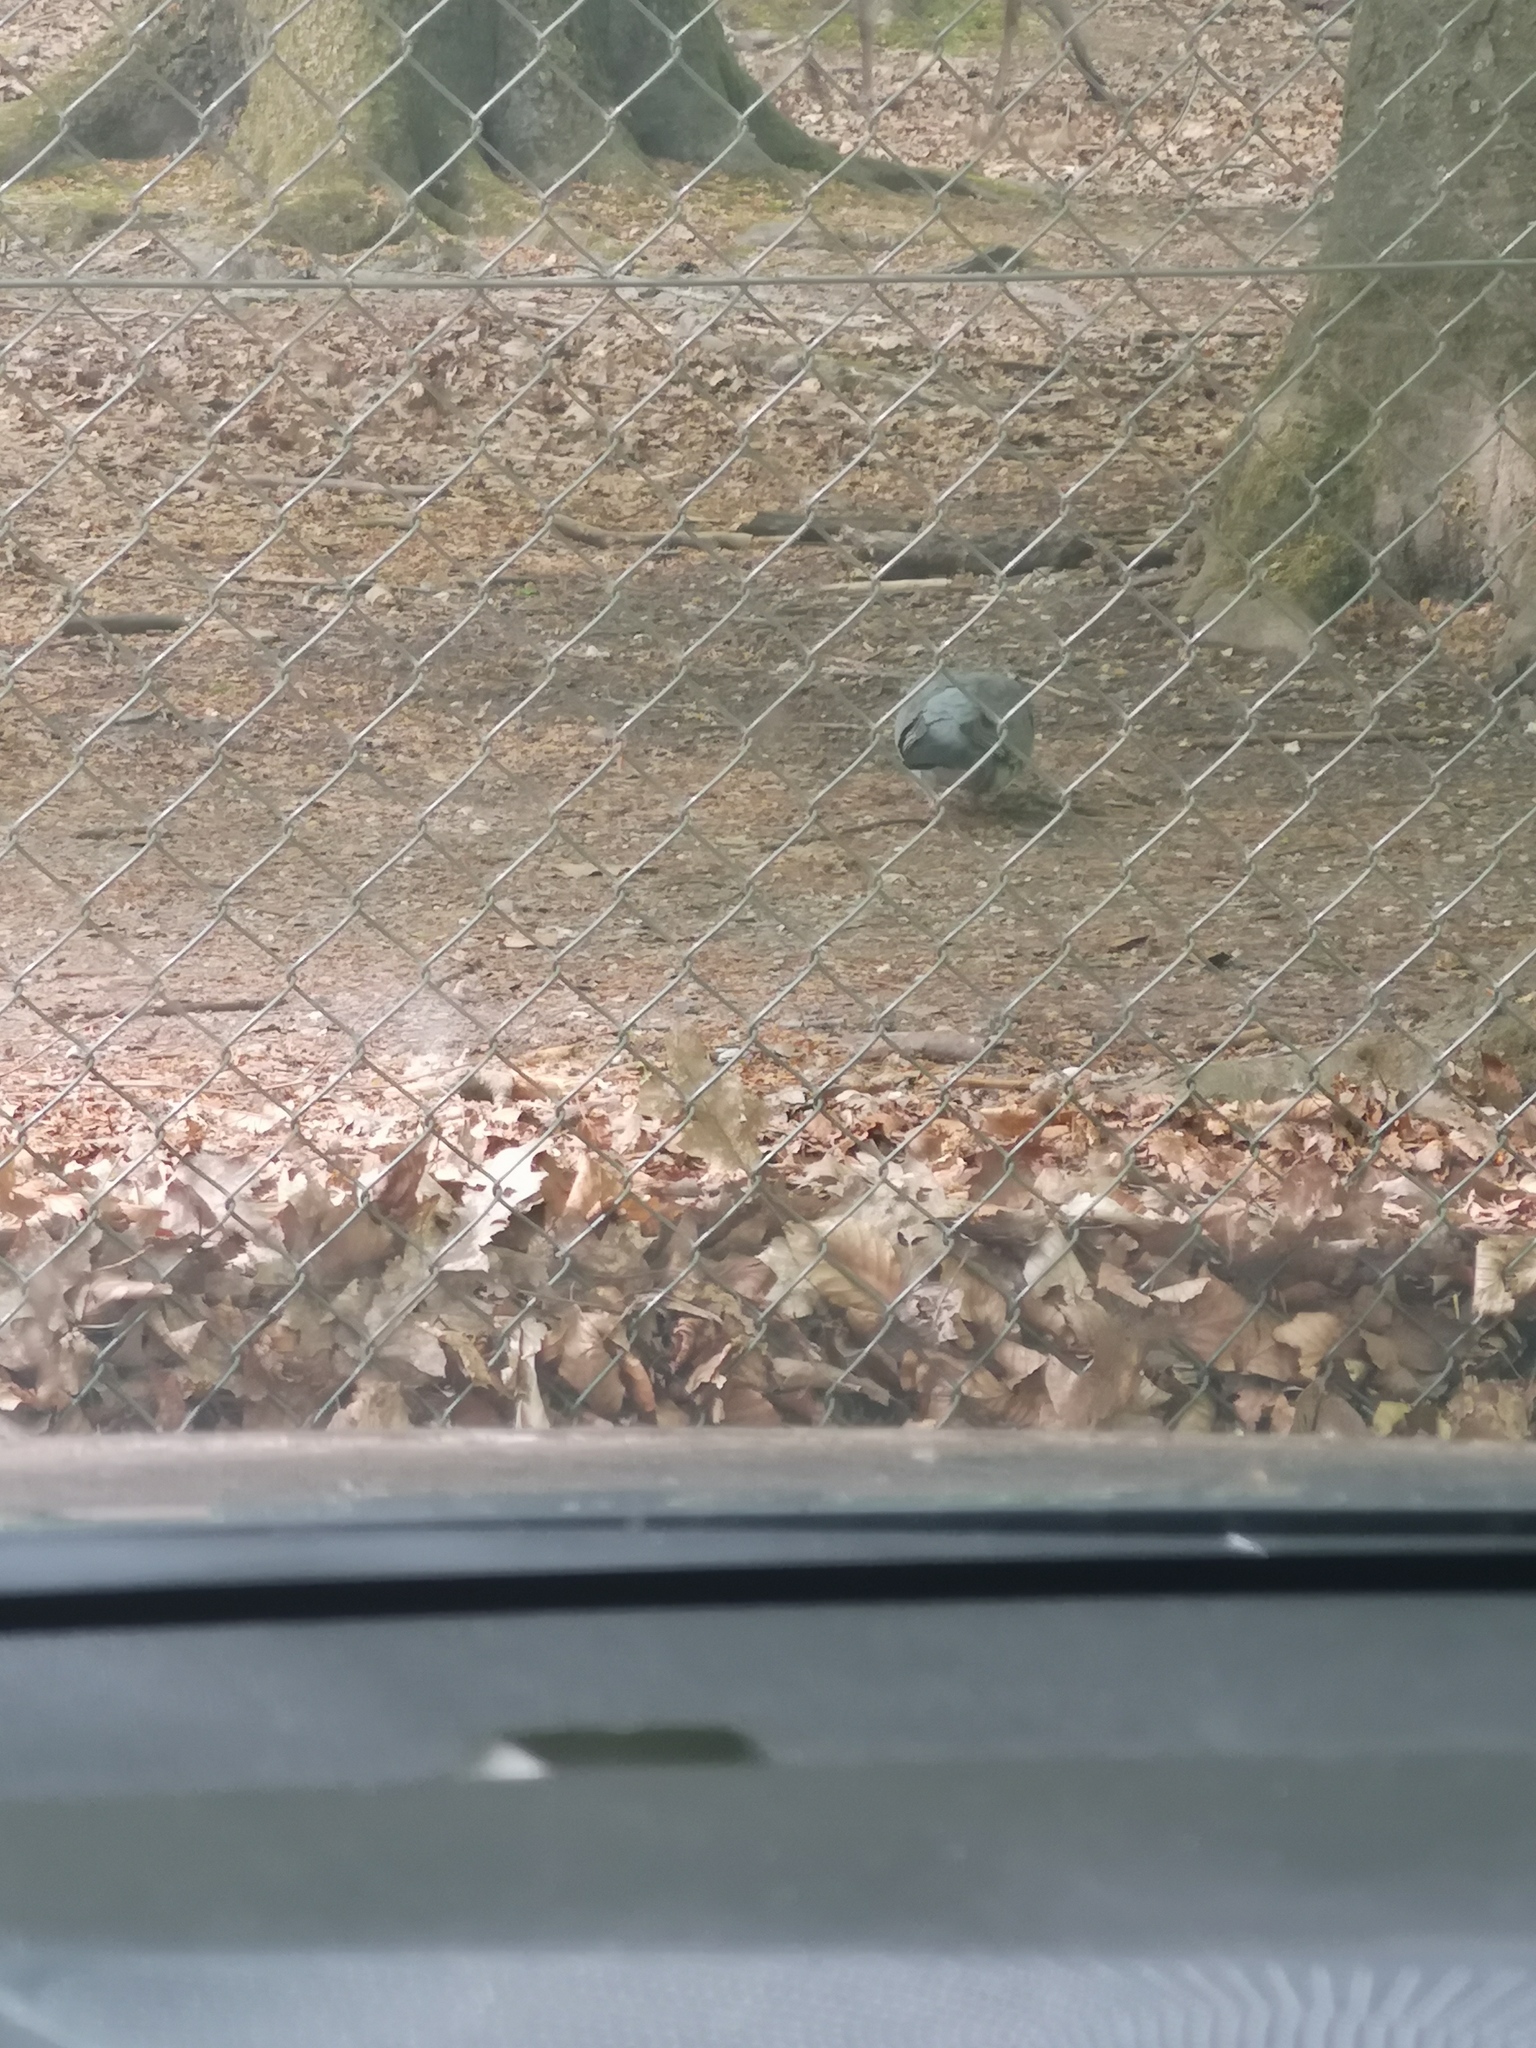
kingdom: Animalia
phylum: Chordata
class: Aves
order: Columbiformes
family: Columbidae
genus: Columba
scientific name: Columba palumbus
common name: Common wood pigeon
